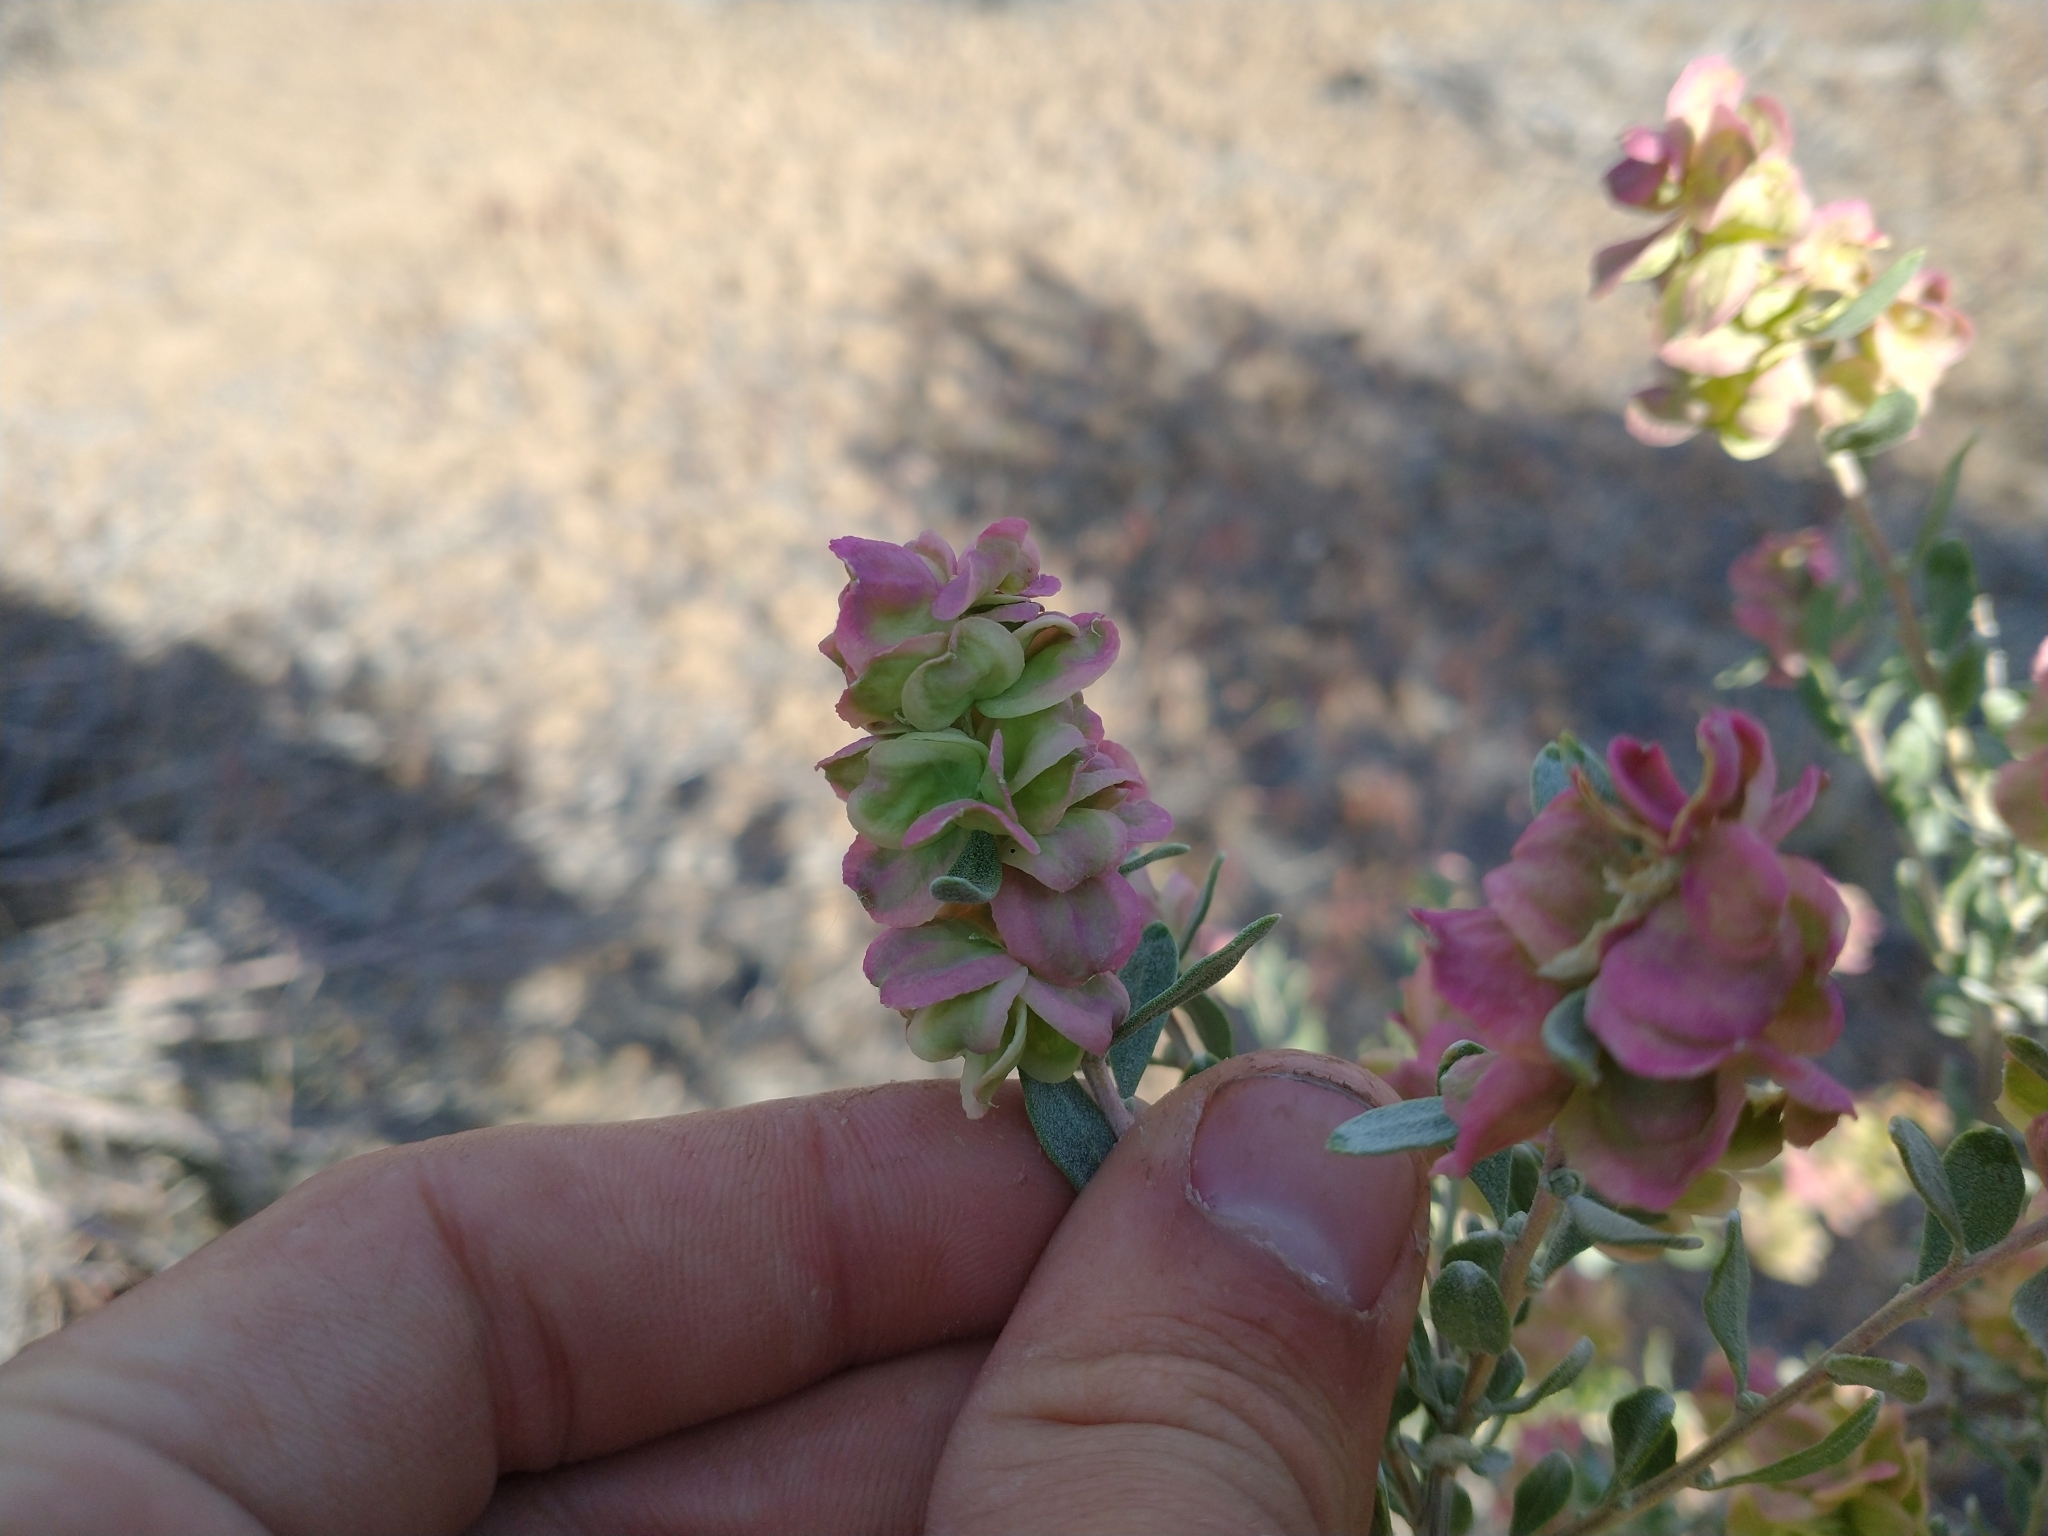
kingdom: Plantae
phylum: Tracheophyta
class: Magnoliopsida
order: Caryophyllales
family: Amaranthaceae
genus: Grayia
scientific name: Grayia spinosa
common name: Spiny hopsage
